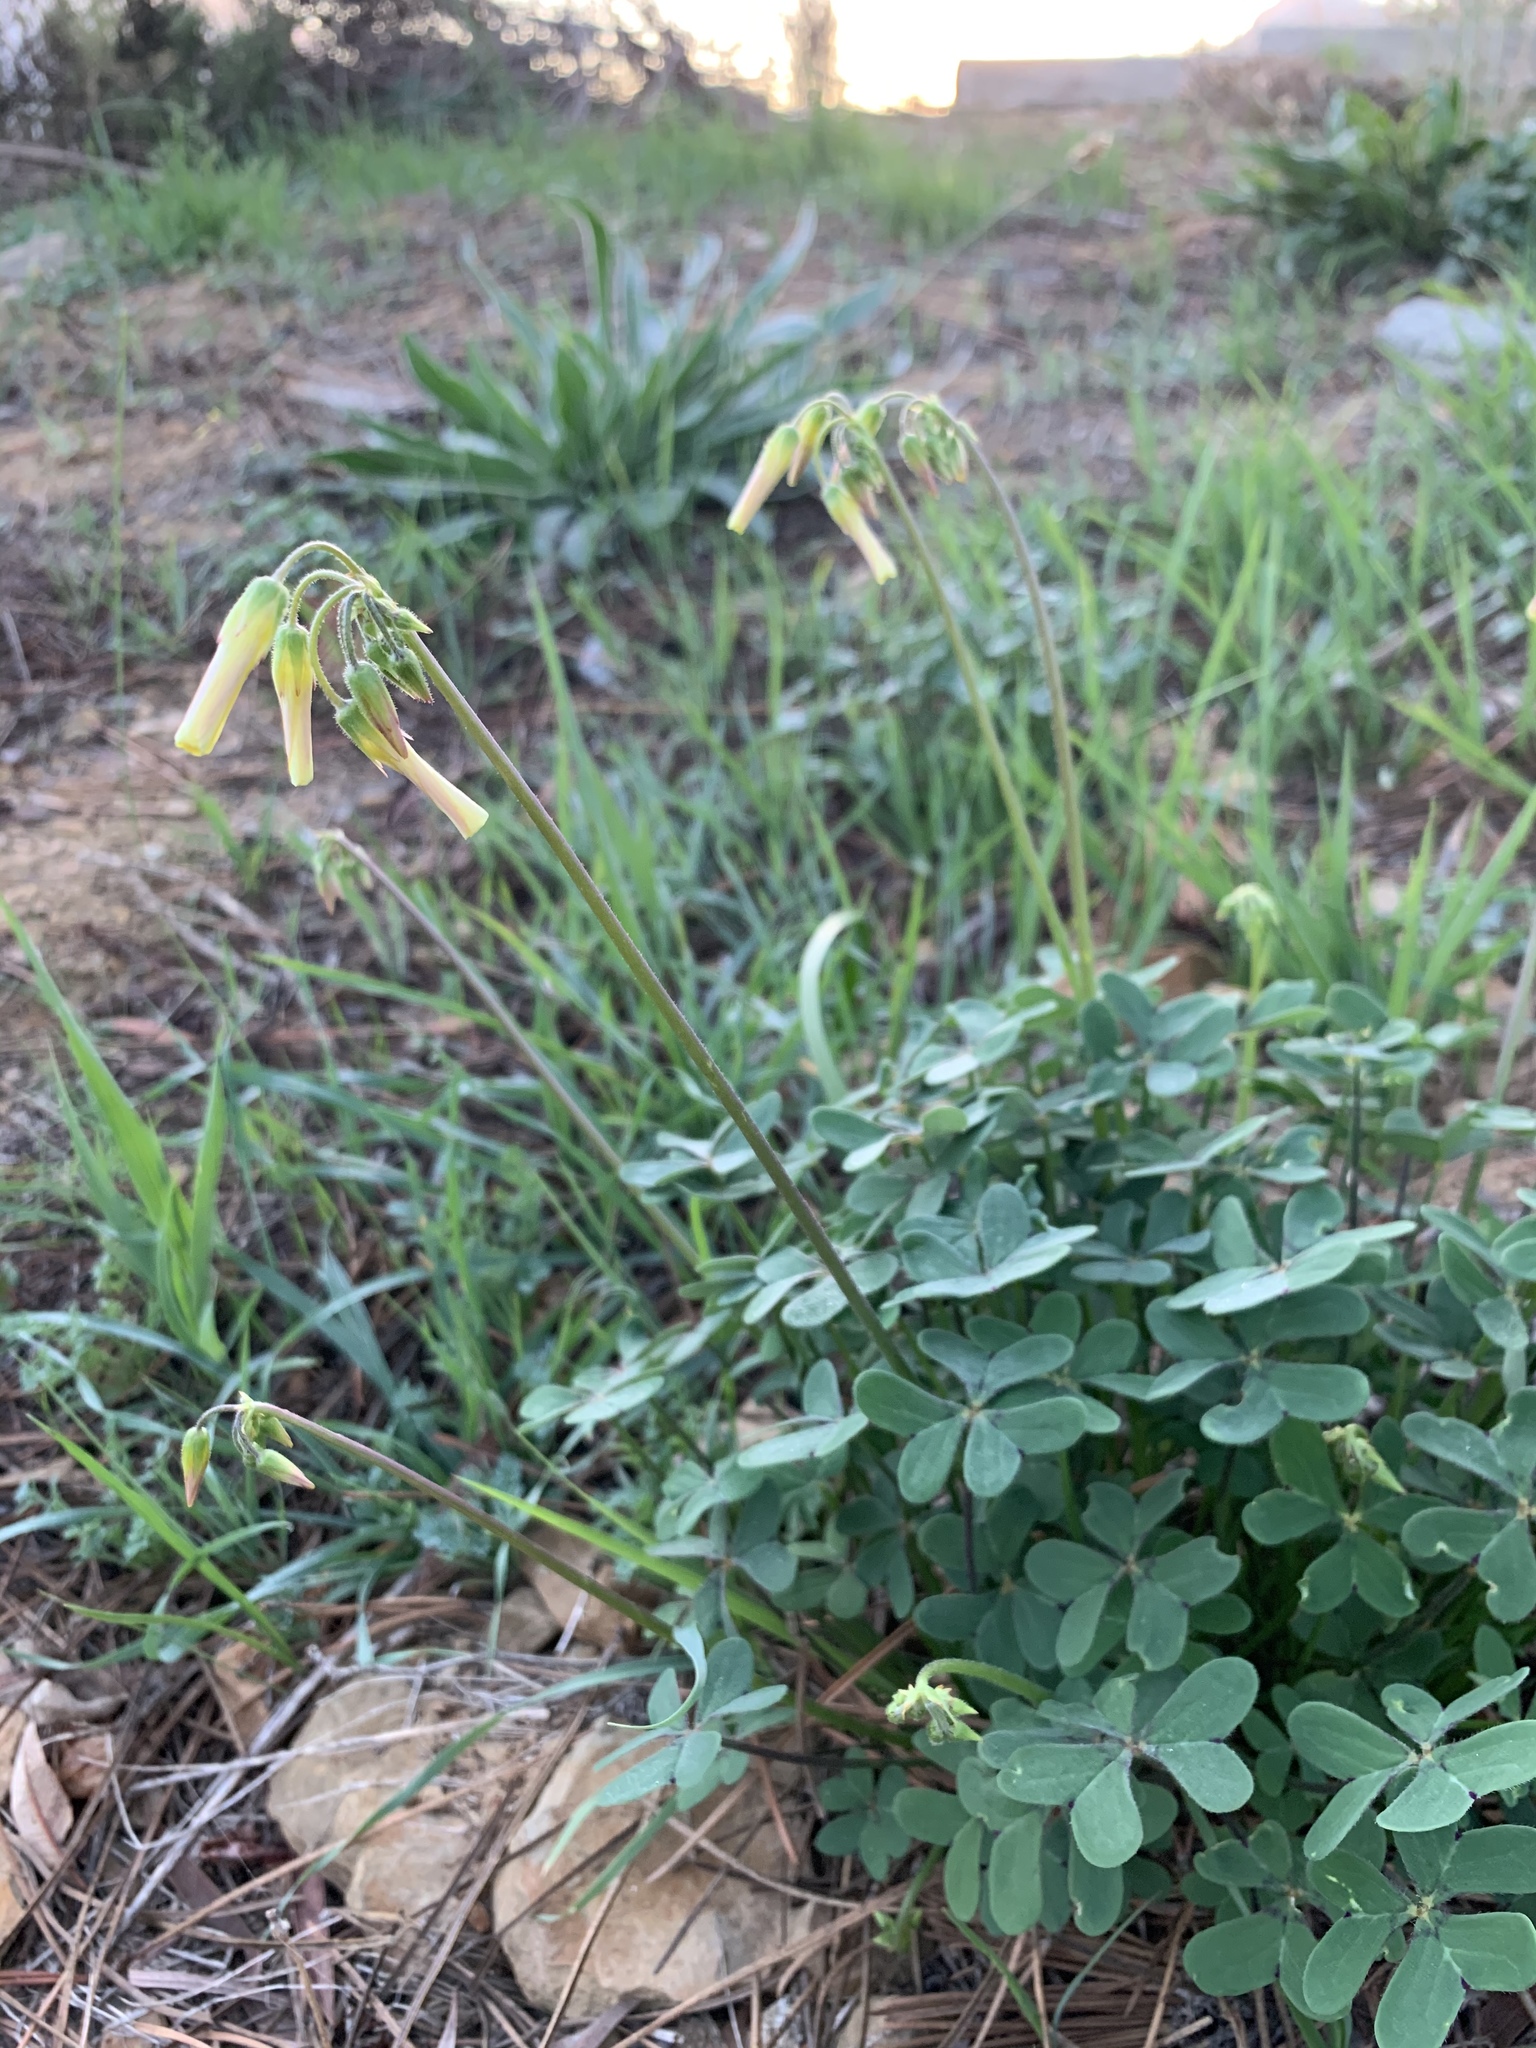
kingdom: Plantae
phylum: Tracheophyta
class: Magnoliopsida
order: Oxalidales
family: Oxalidaceae
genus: Oxalis
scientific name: Oxalis pes-caprae
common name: Bermuda-buttercup
